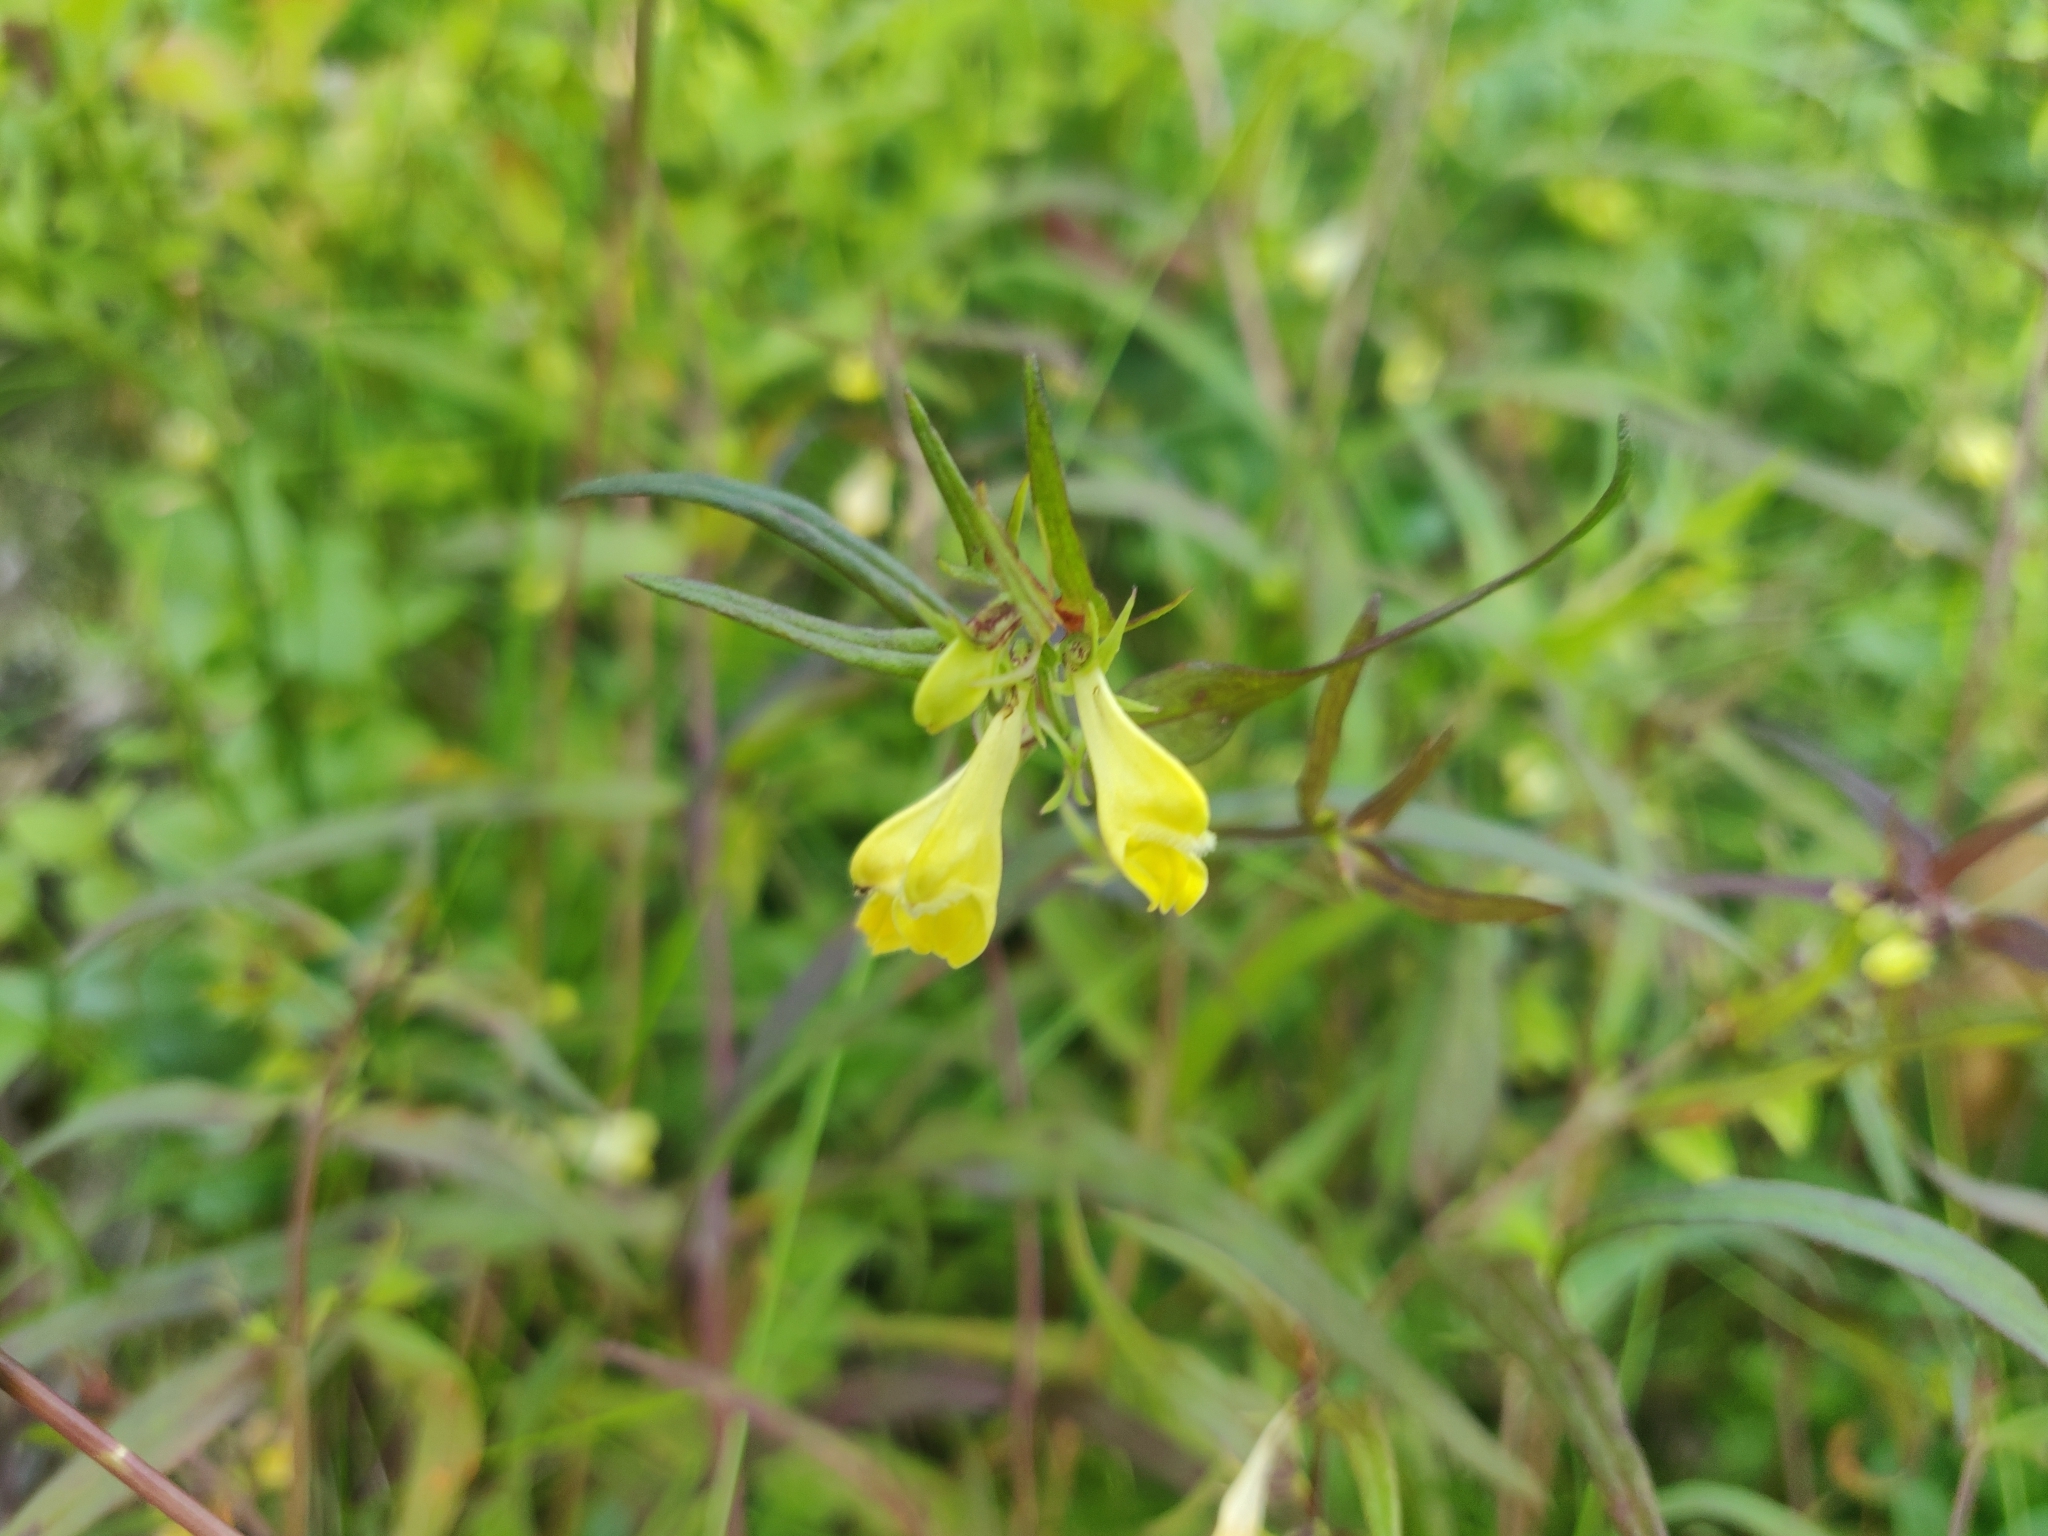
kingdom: Plantae
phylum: Tracheophyta
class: Magnoliopsida
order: Lamiales
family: Orobanchaceae
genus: Melampyrum
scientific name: Melampyrum pratense
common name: Common cow-wheat
